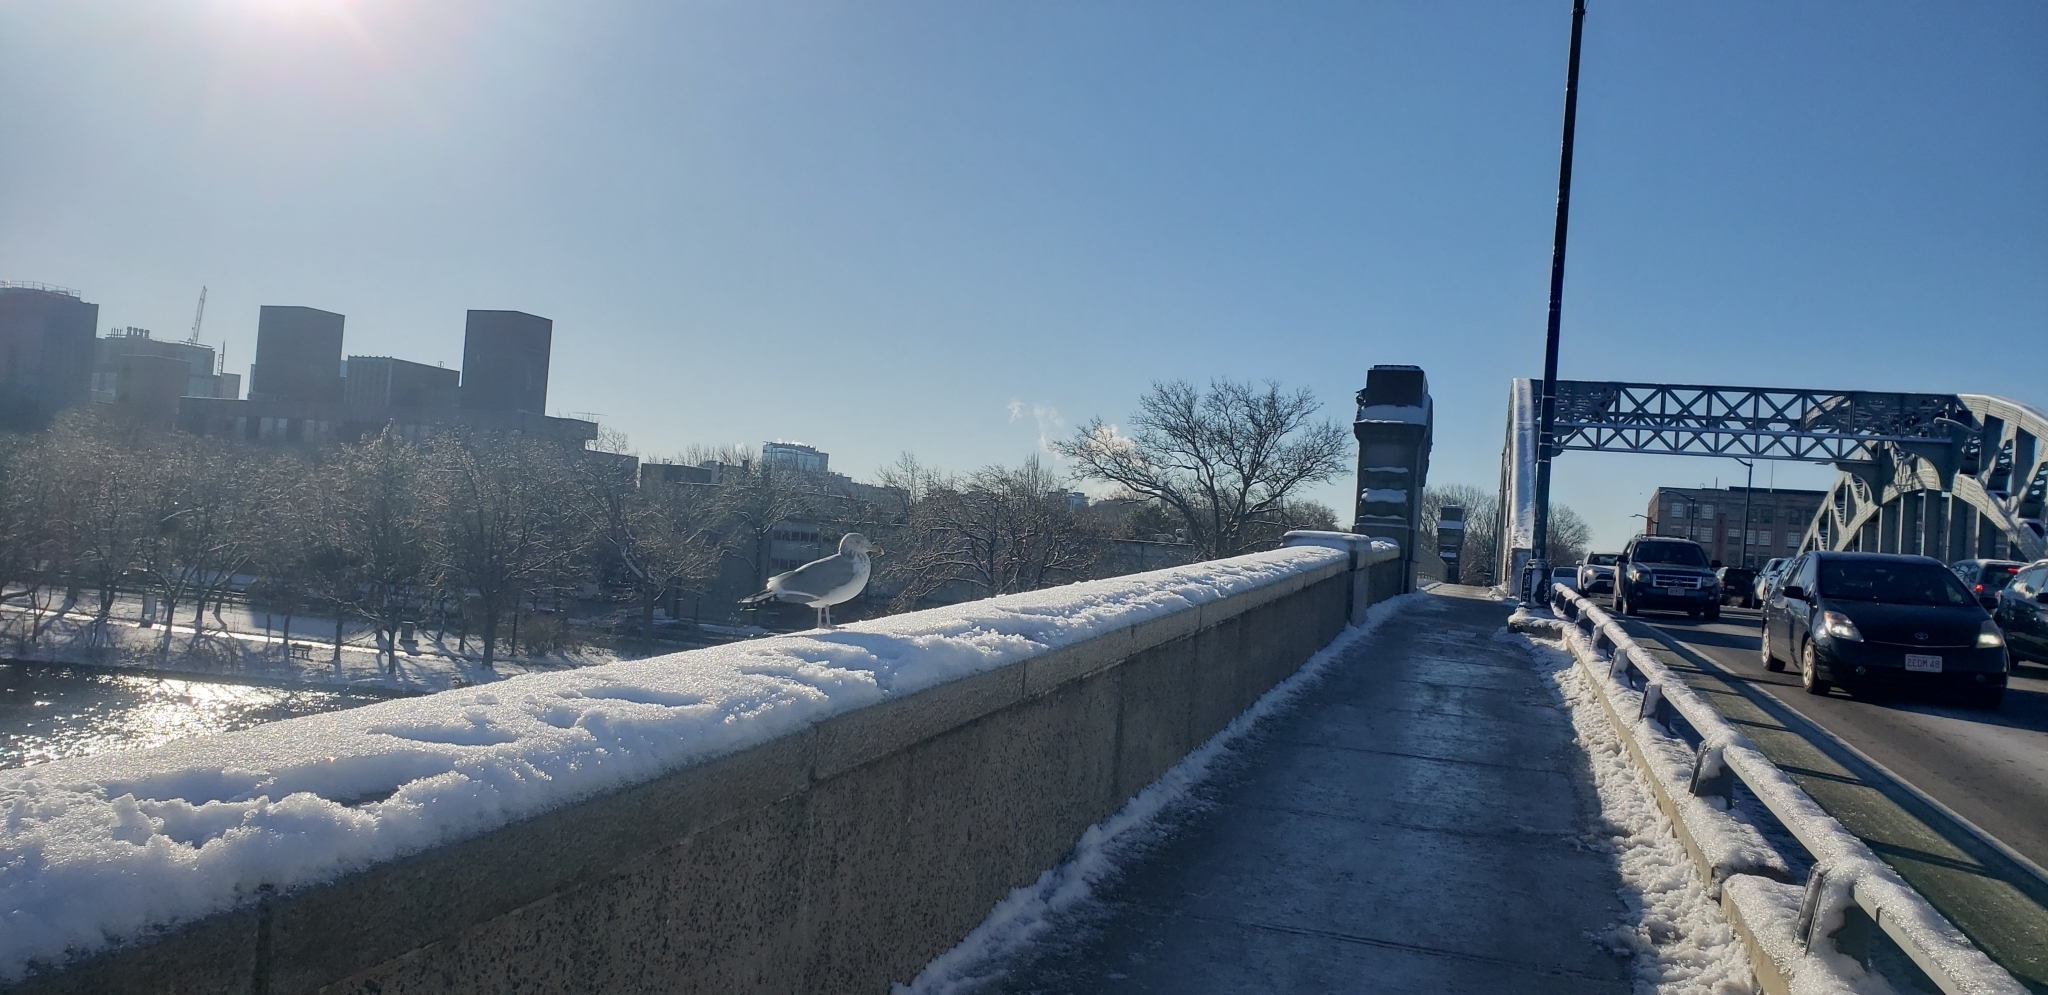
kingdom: Animalia
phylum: Chordata
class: Aves
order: Charadriiformes
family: Laridae
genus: Larus
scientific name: Larus argentatus
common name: Herring gull
